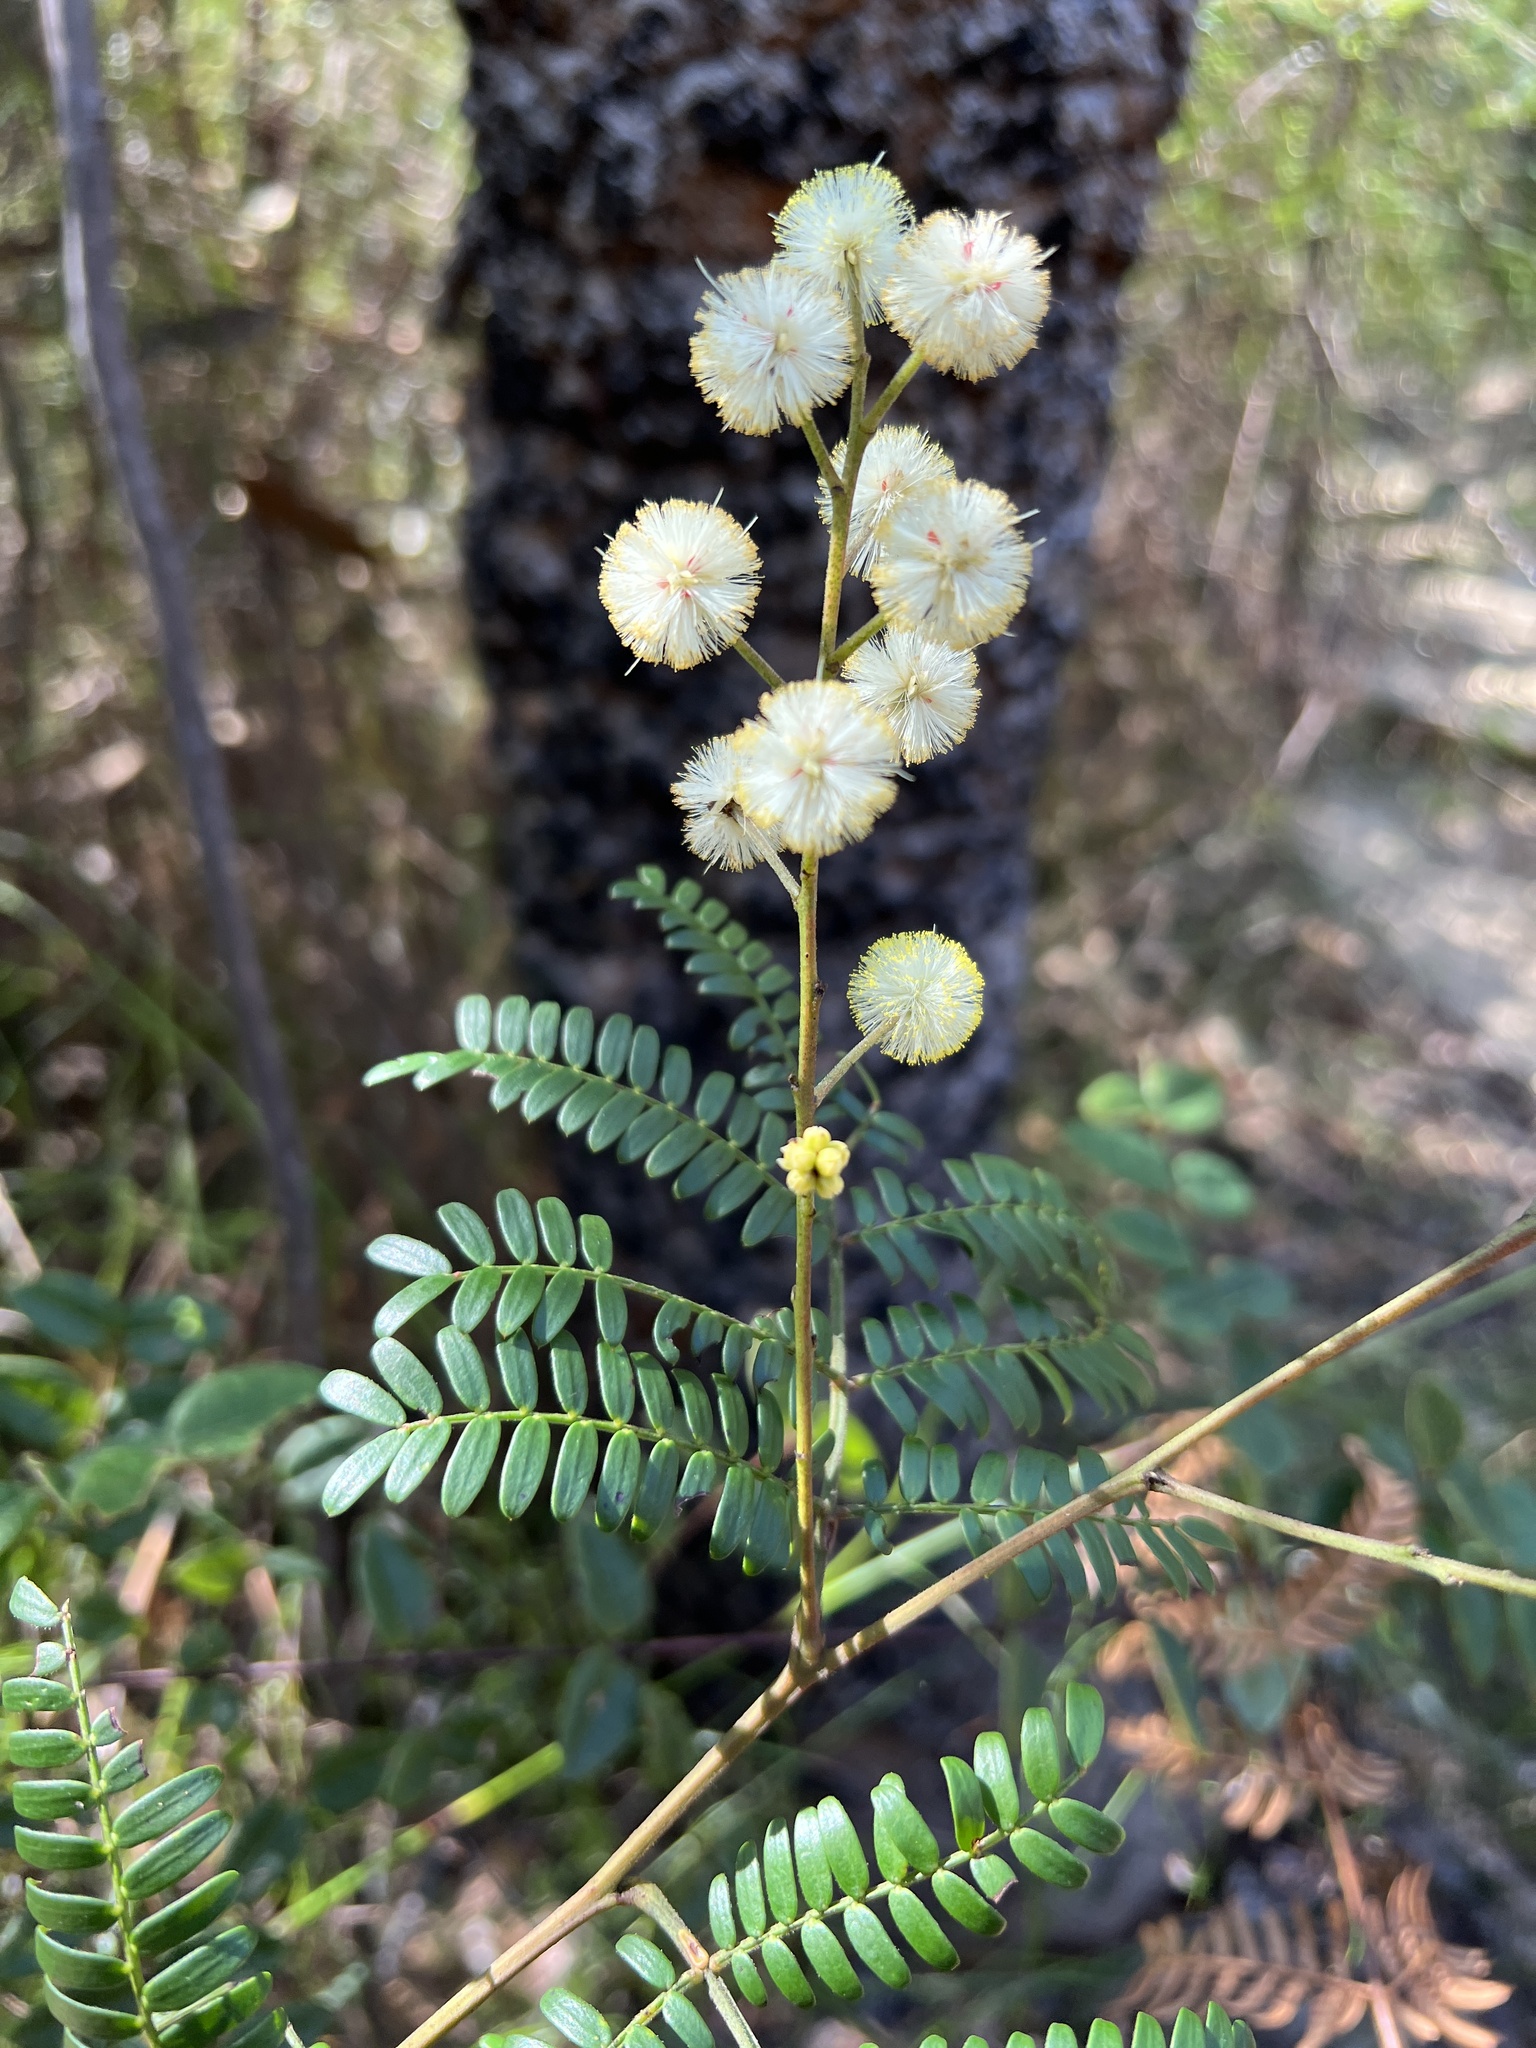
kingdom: Plantae
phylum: Tracheophyta
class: Magnoliopsida
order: Fabales
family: Fabaceae
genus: Acacia
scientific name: Acacia terminalis
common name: Cedar wattle
